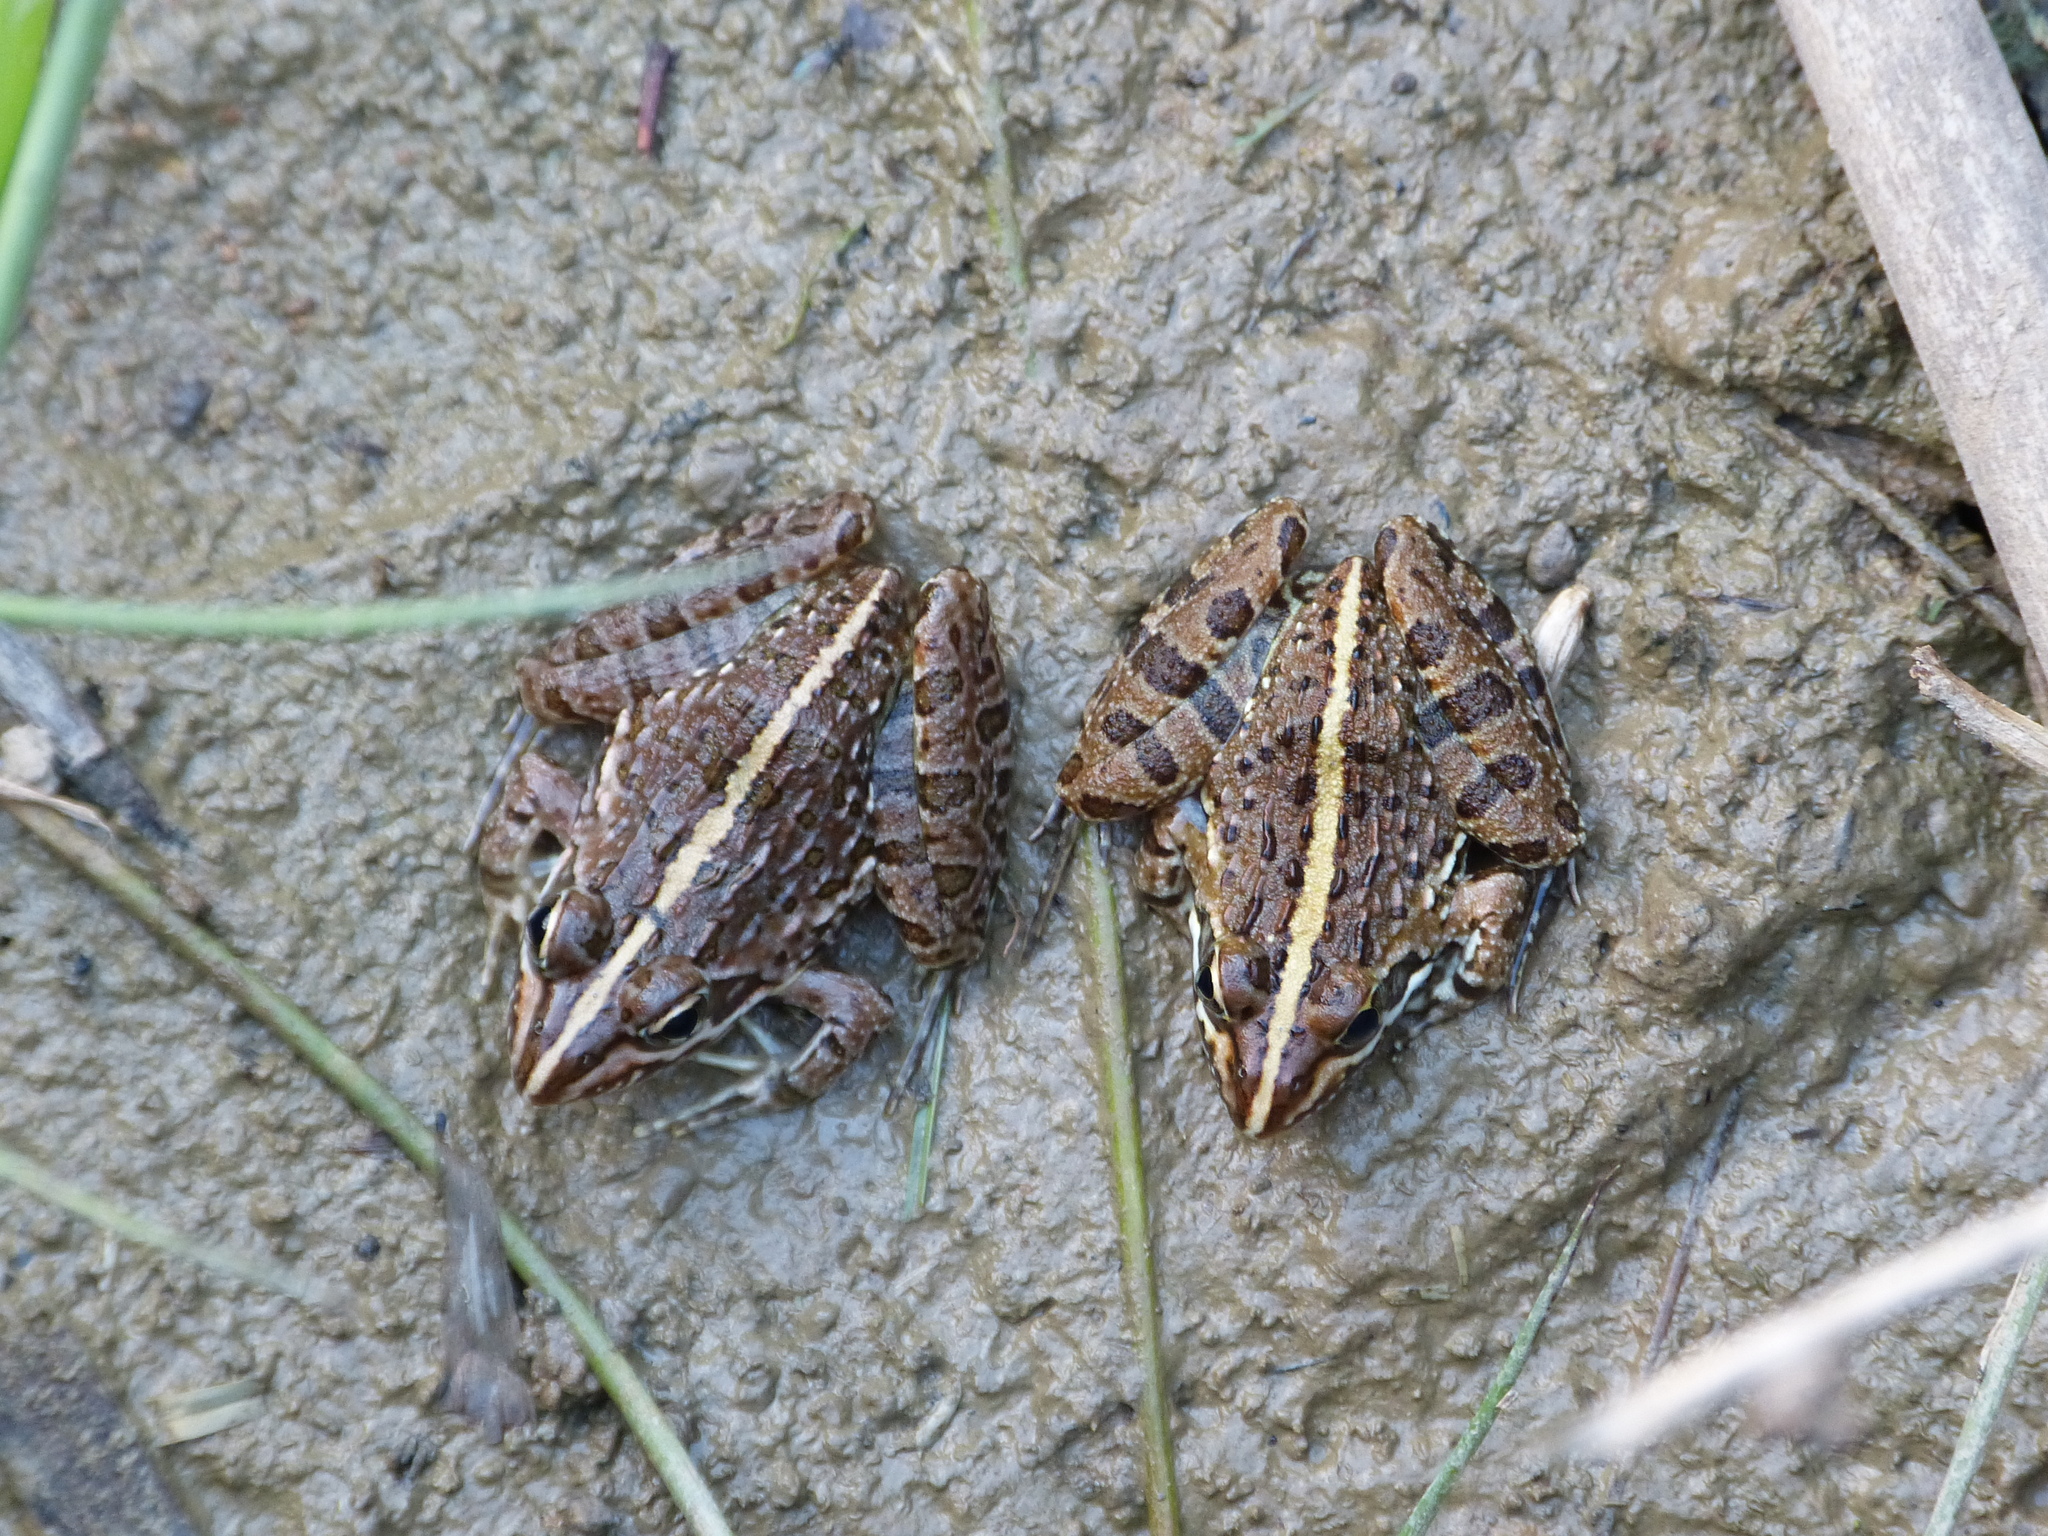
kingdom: Animalia
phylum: Chordata
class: Amphibia
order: Anura
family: Pyxicephalidae
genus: Amietia
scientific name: Amietia delalandii
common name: Delalande's river frog
